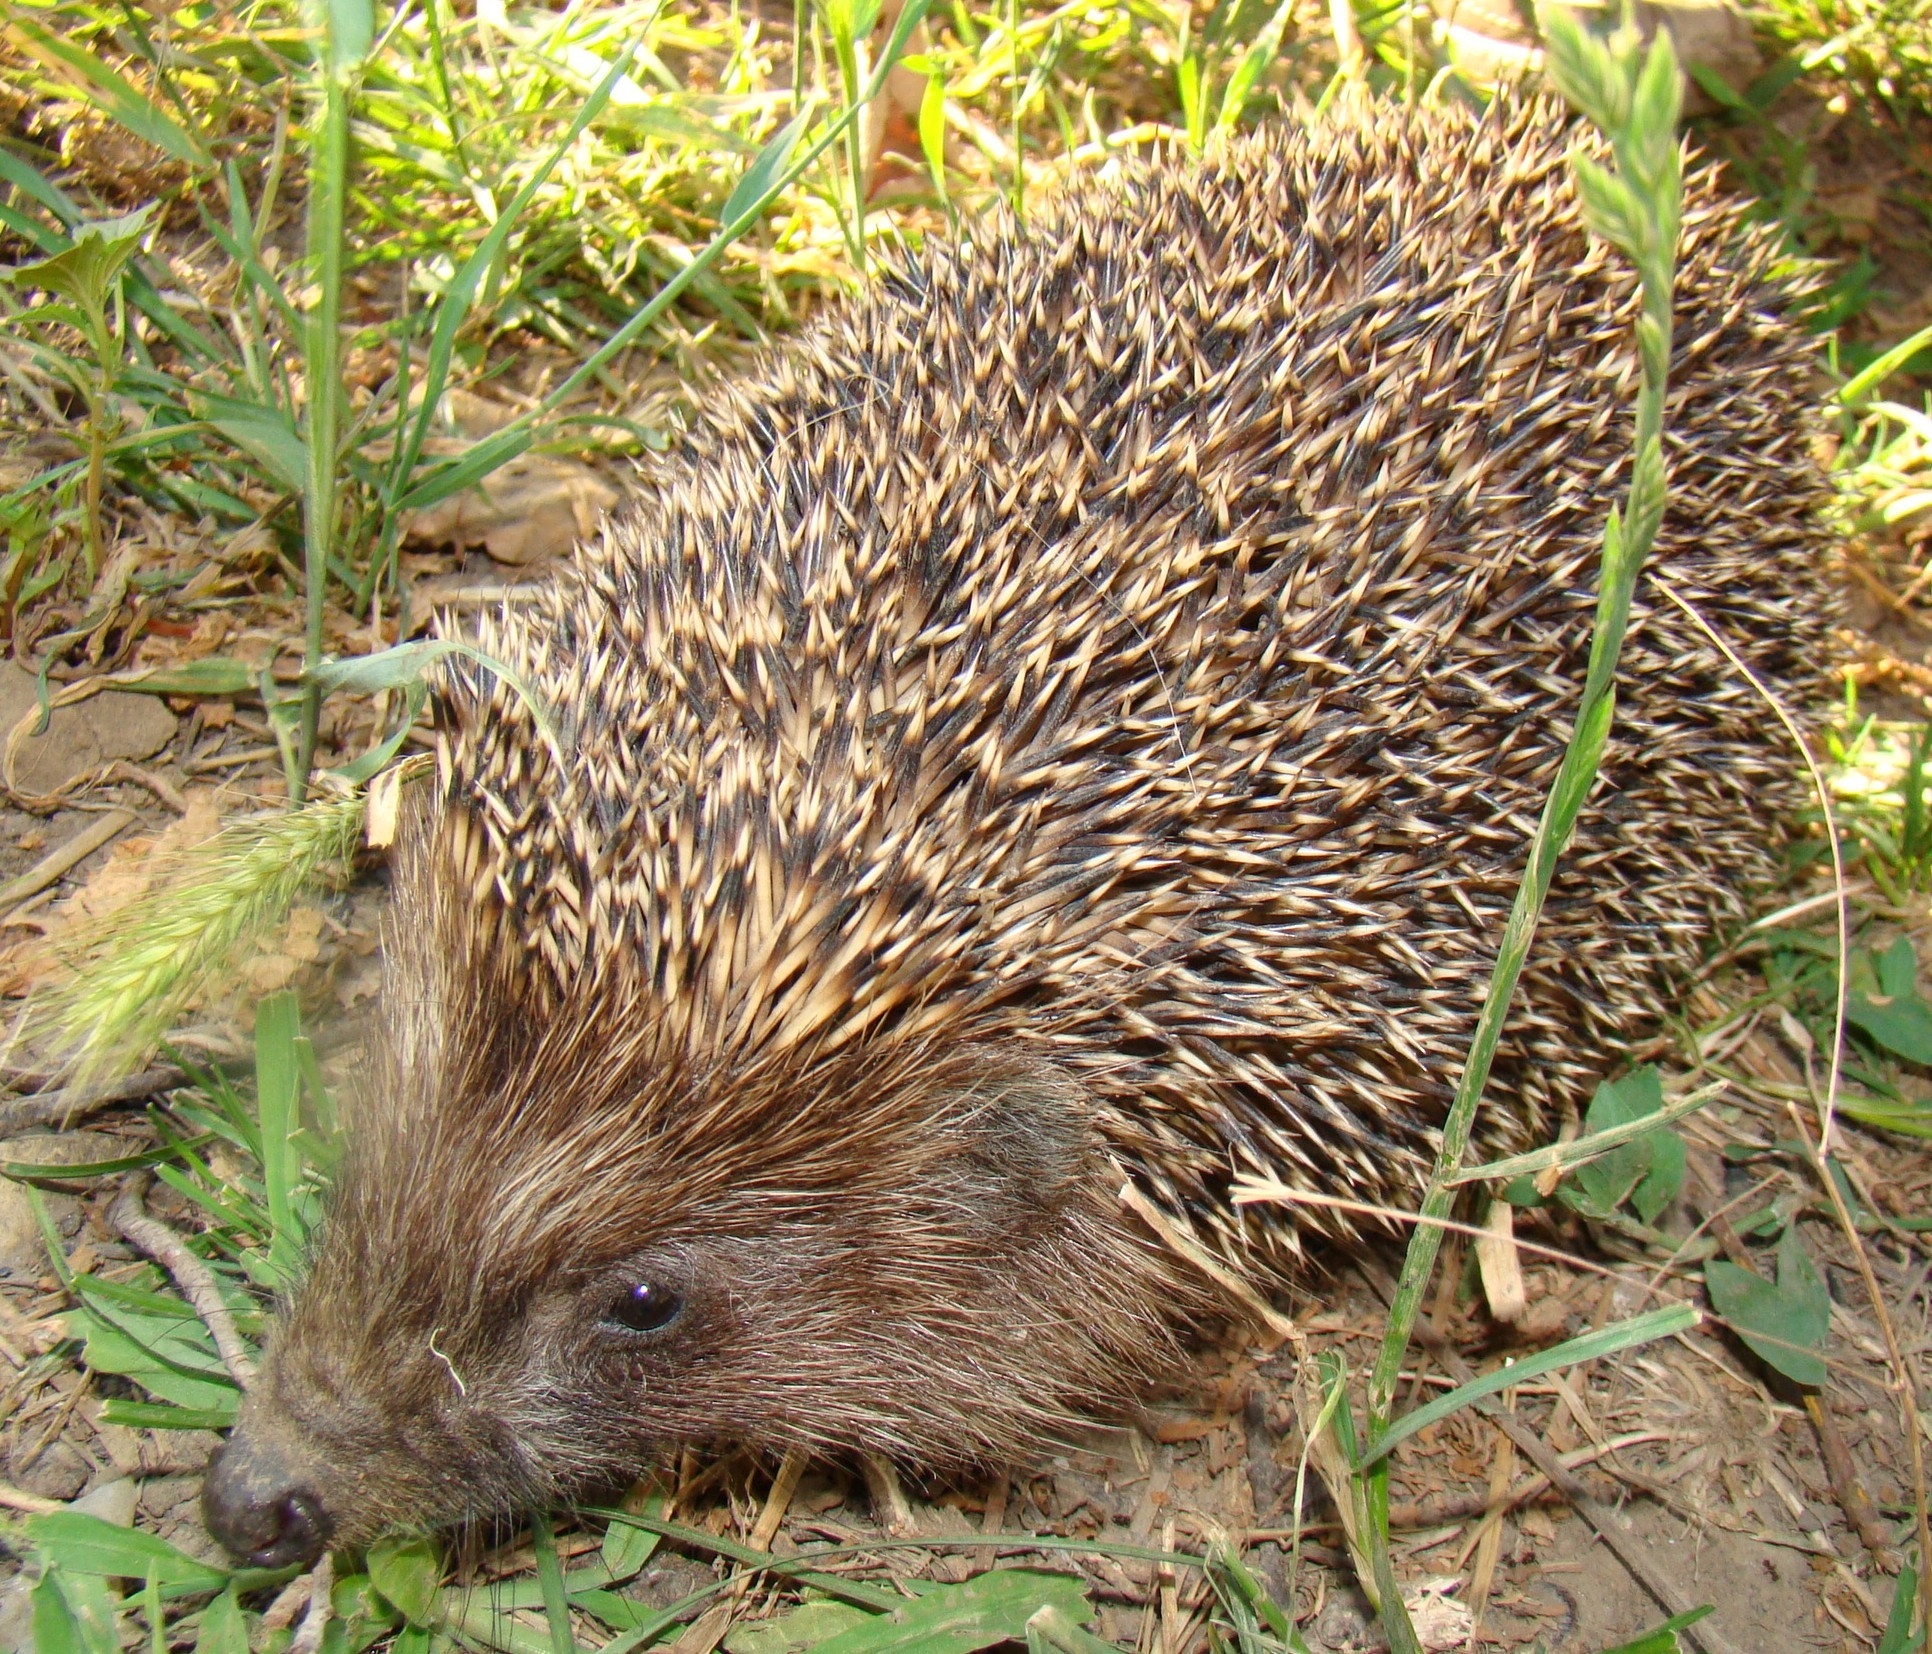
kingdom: Animalia
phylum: Chordata
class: Mammalia
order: Erinaceomorpha
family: Erinaceidae
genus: Erinaceus
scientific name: Erinaceus roumanicus
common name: Northern white-breasted hedgehog
